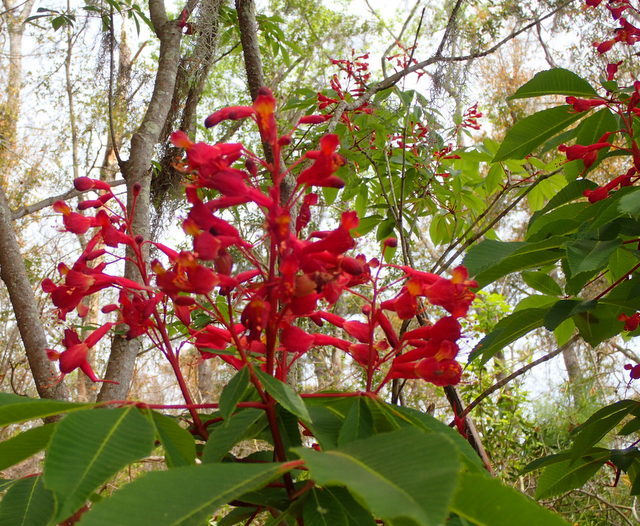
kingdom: Plantae
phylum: Tracheophyta
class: Magnoliopsida
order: Sapindales
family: Sapindaceae
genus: Aesculus
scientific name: Aesculus pavia
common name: Red buckeye
